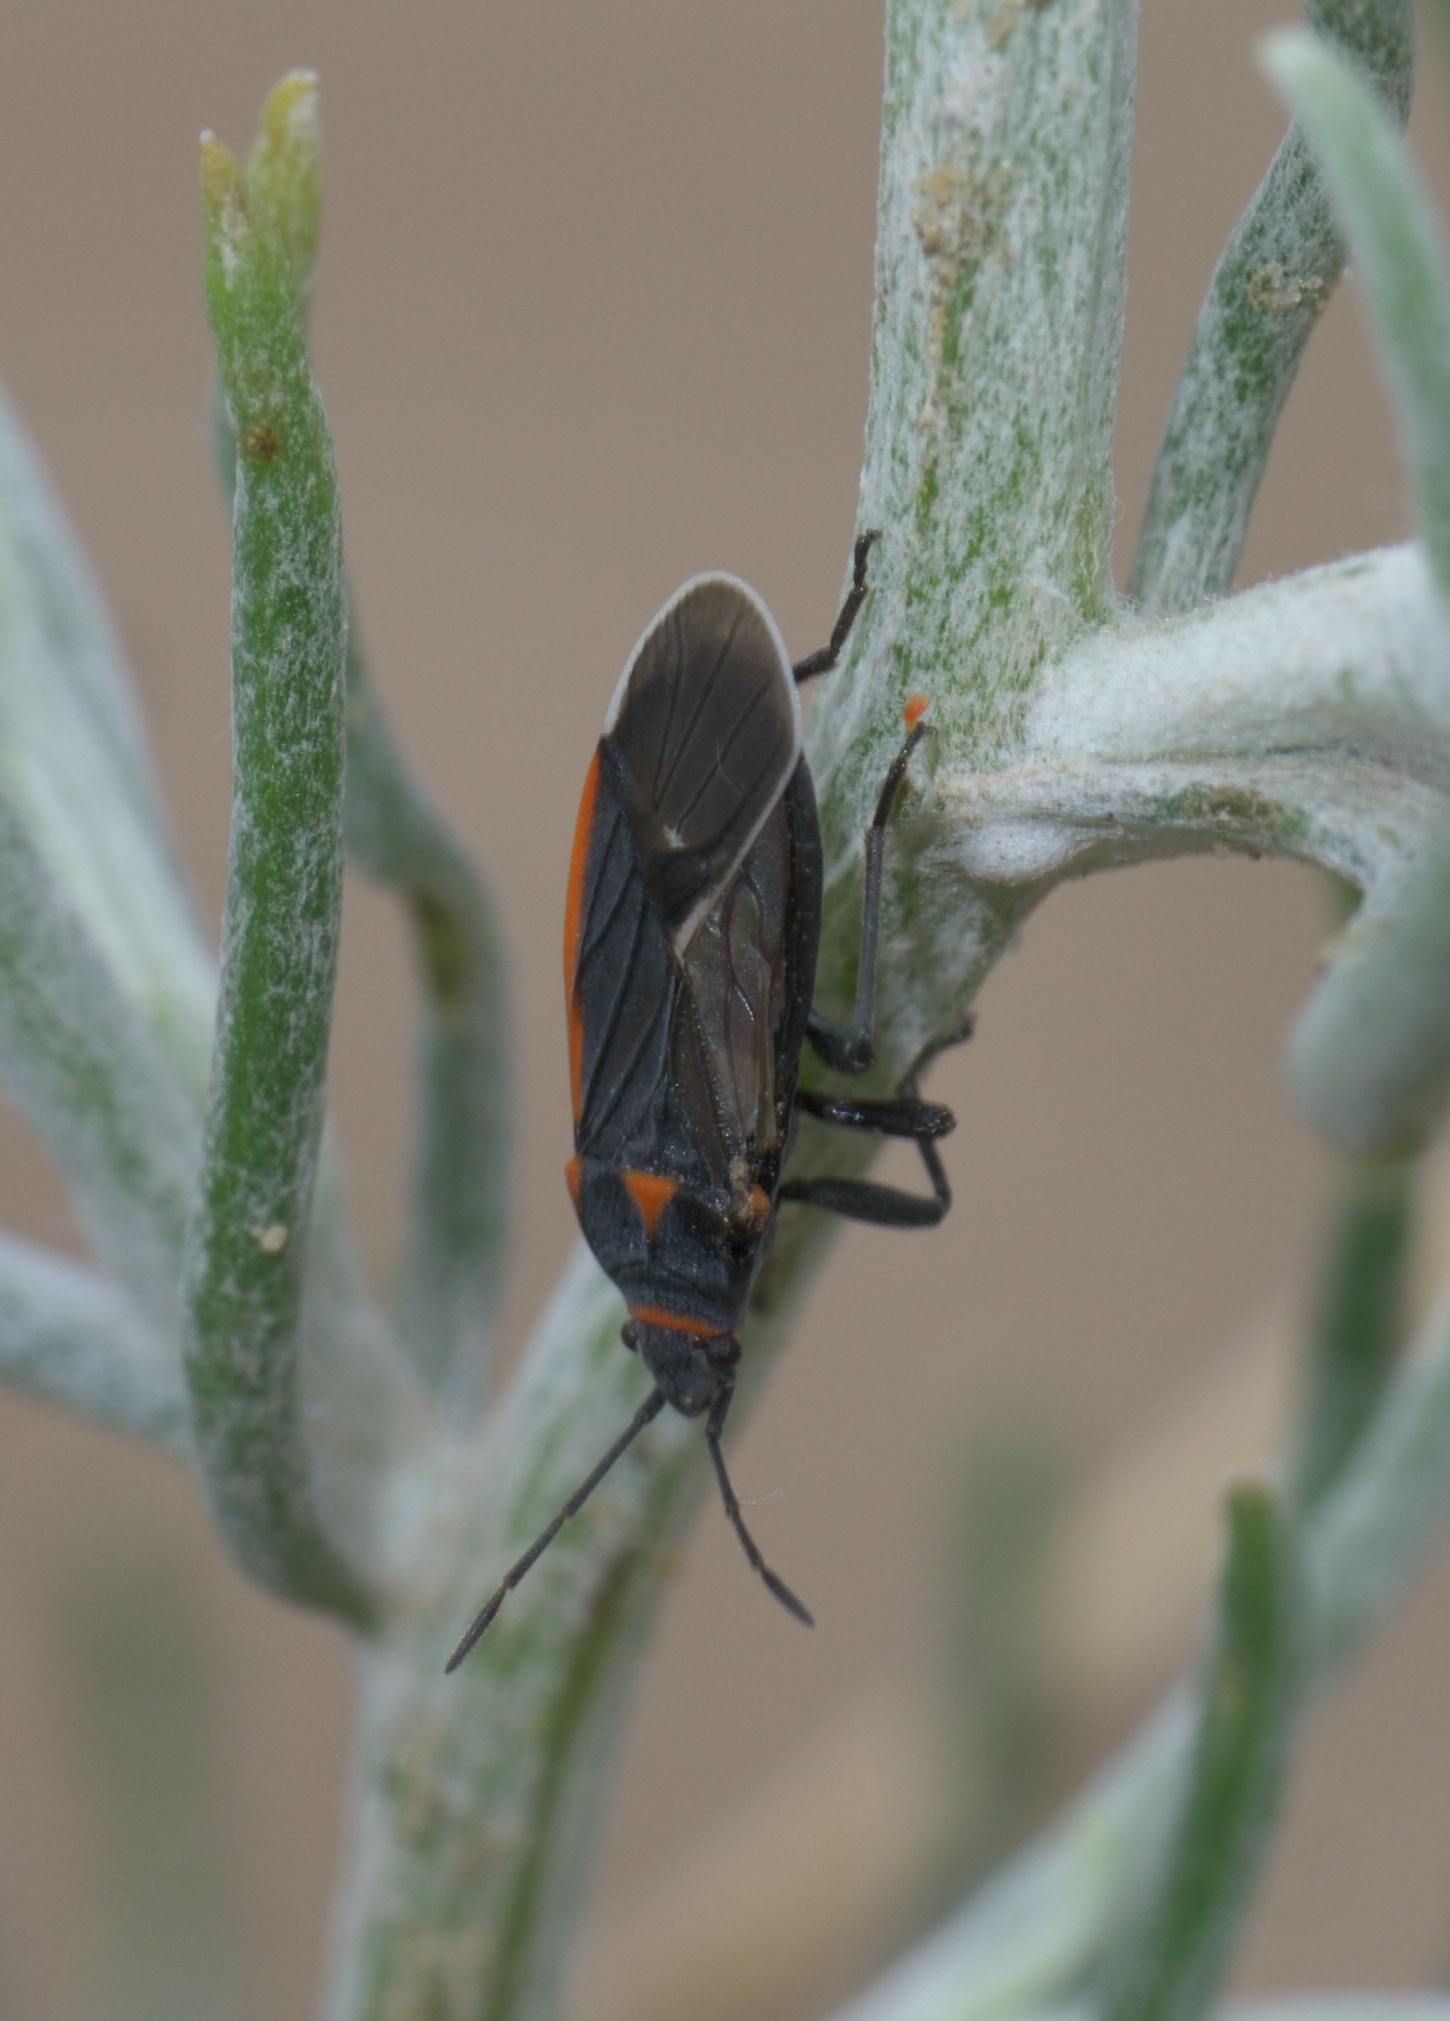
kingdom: Animalia
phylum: Arthropoda
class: Insecta
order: Hemiptera
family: Lygaeidae
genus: Melacoryphus
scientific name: Melacoryphus lateralis
